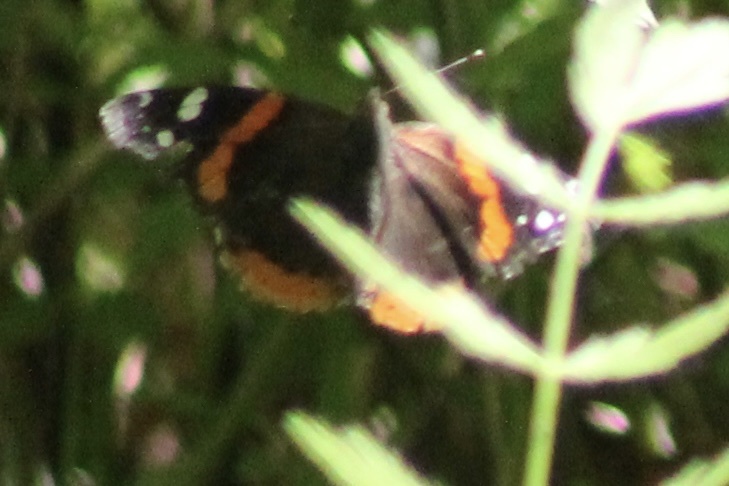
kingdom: Animalia
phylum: Arthropoda
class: Insecta
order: Lepidoptera
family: Nymphalidae
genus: Vanessa
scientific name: Vanessa atalanta
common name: Red admiral
